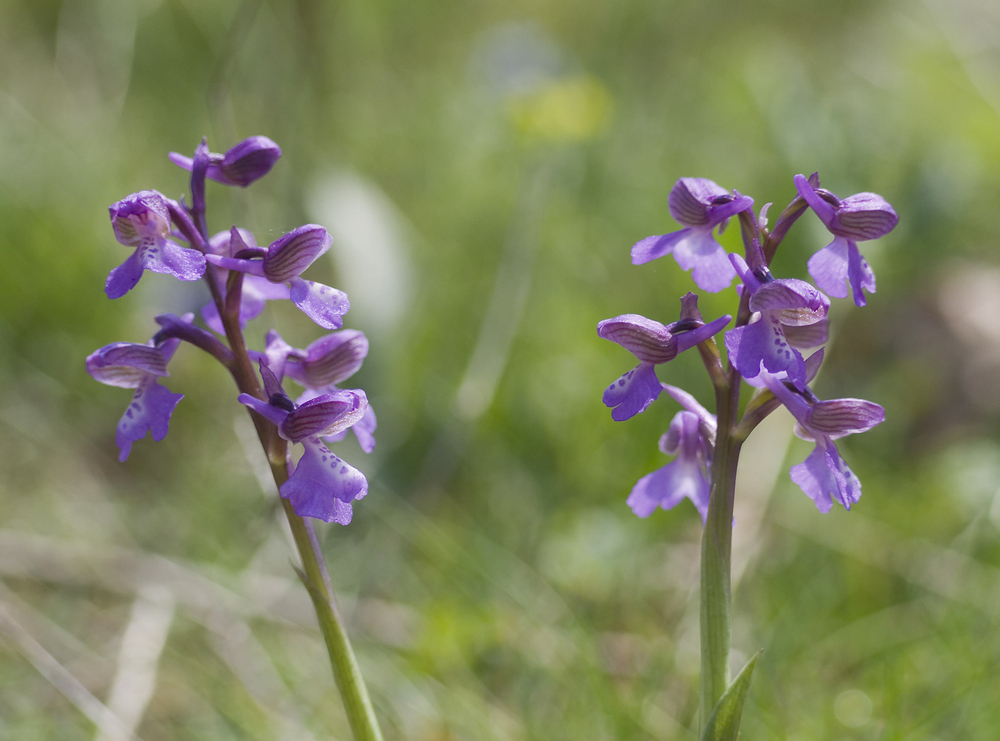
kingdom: Plantae
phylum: Tracheophyta
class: Liliopsida
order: Asparagales
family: Orchidaceae
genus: Anacamptis
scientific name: Anacamptis morio
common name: Green-winged orchid
